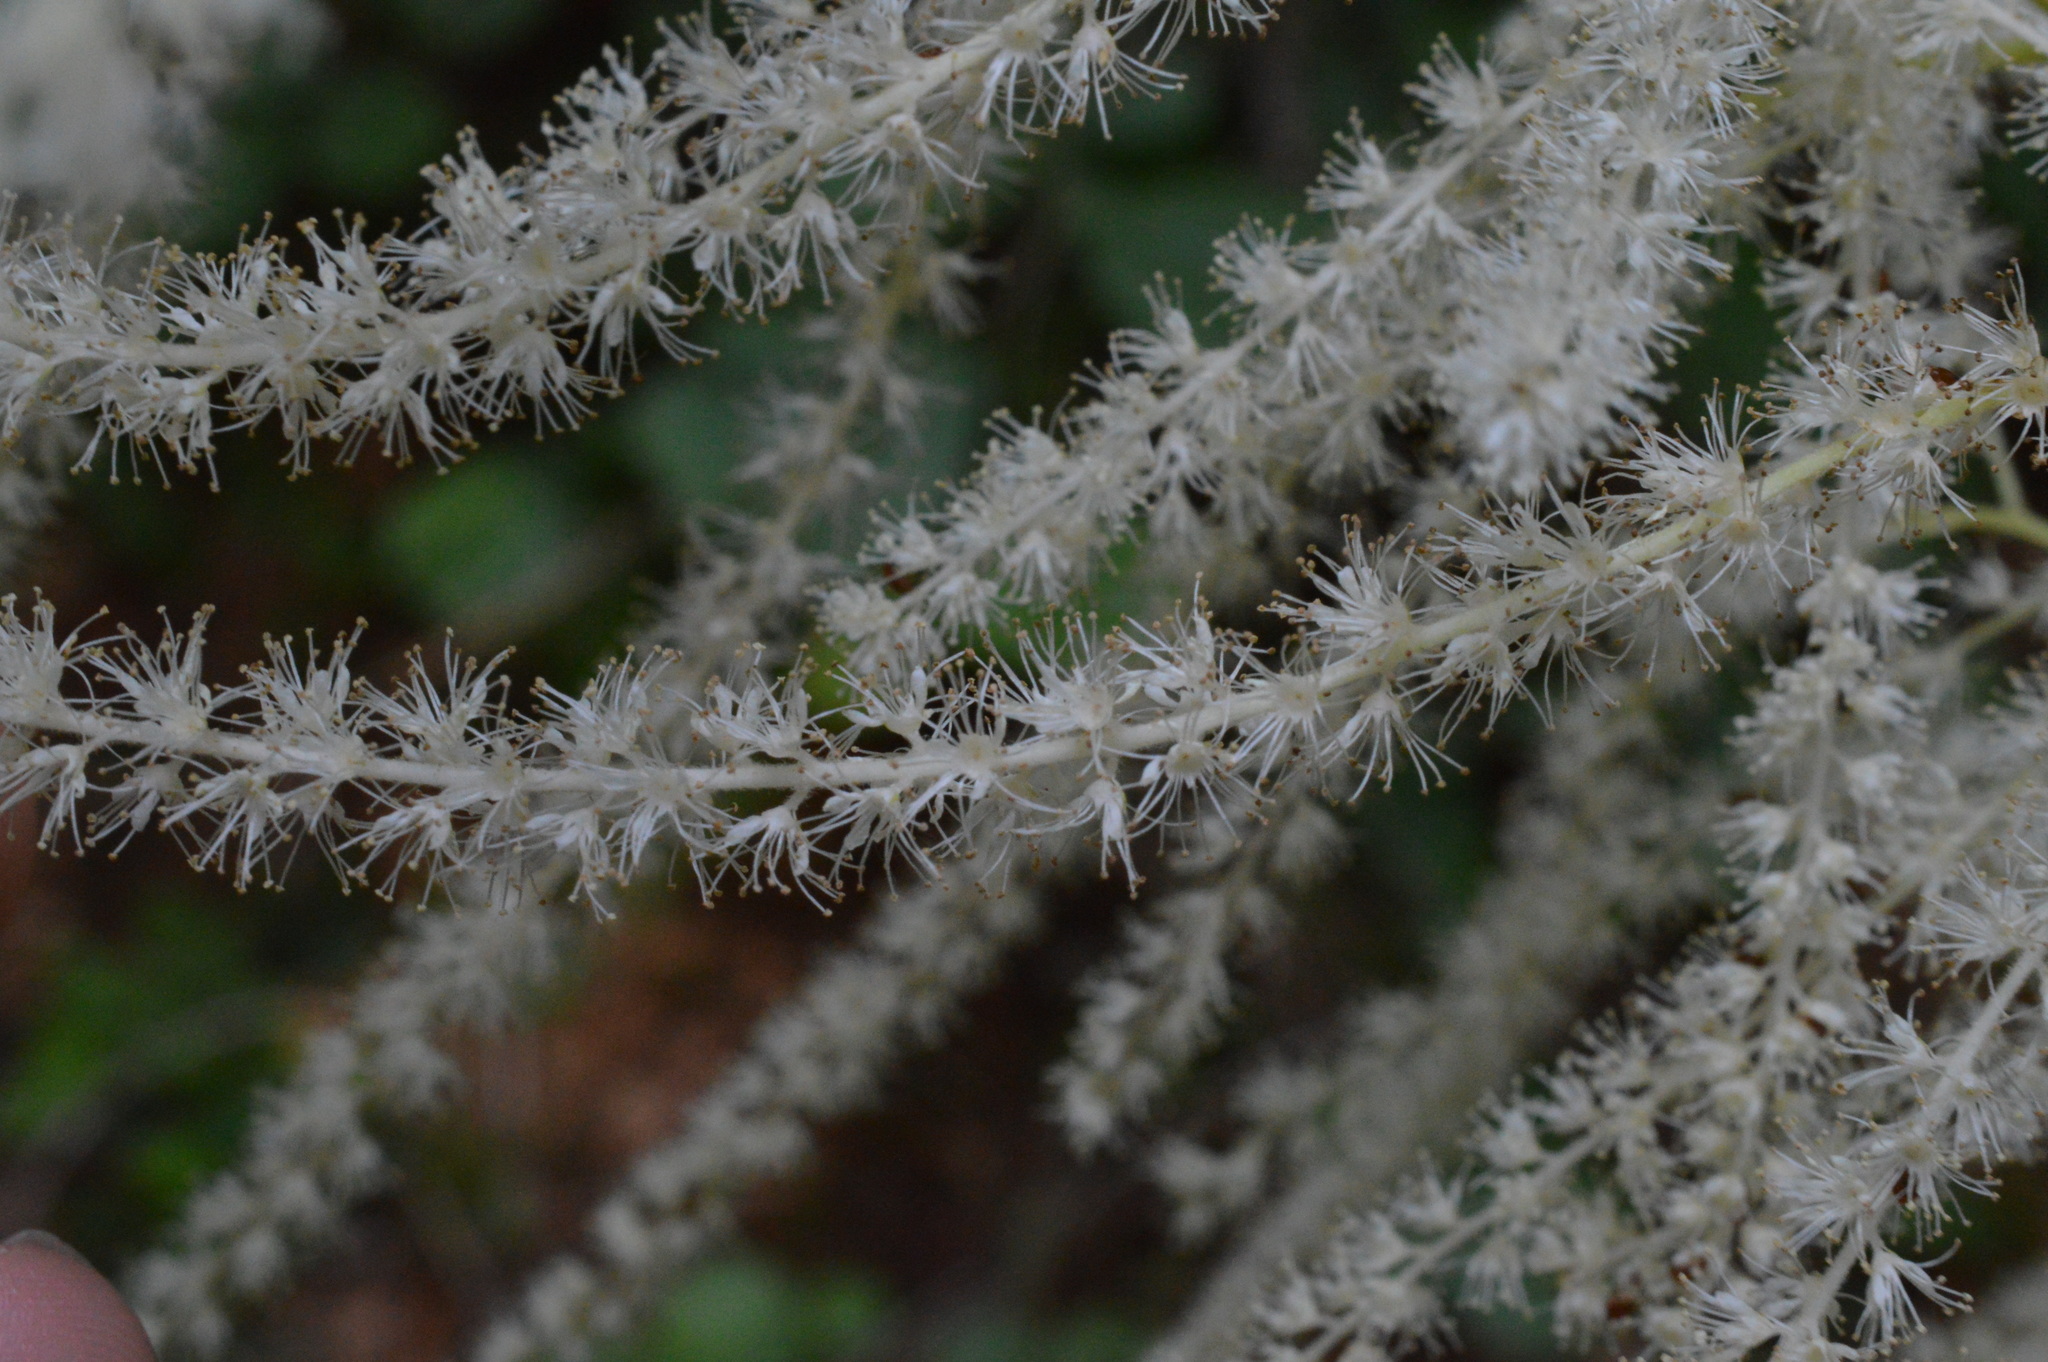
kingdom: Plantae
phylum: Tracheophyta
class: Magnoliopsida
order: Rosales
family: Rosaceae
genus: Aruncus
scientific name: Aruncus dioicus
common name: Buck's-beard
